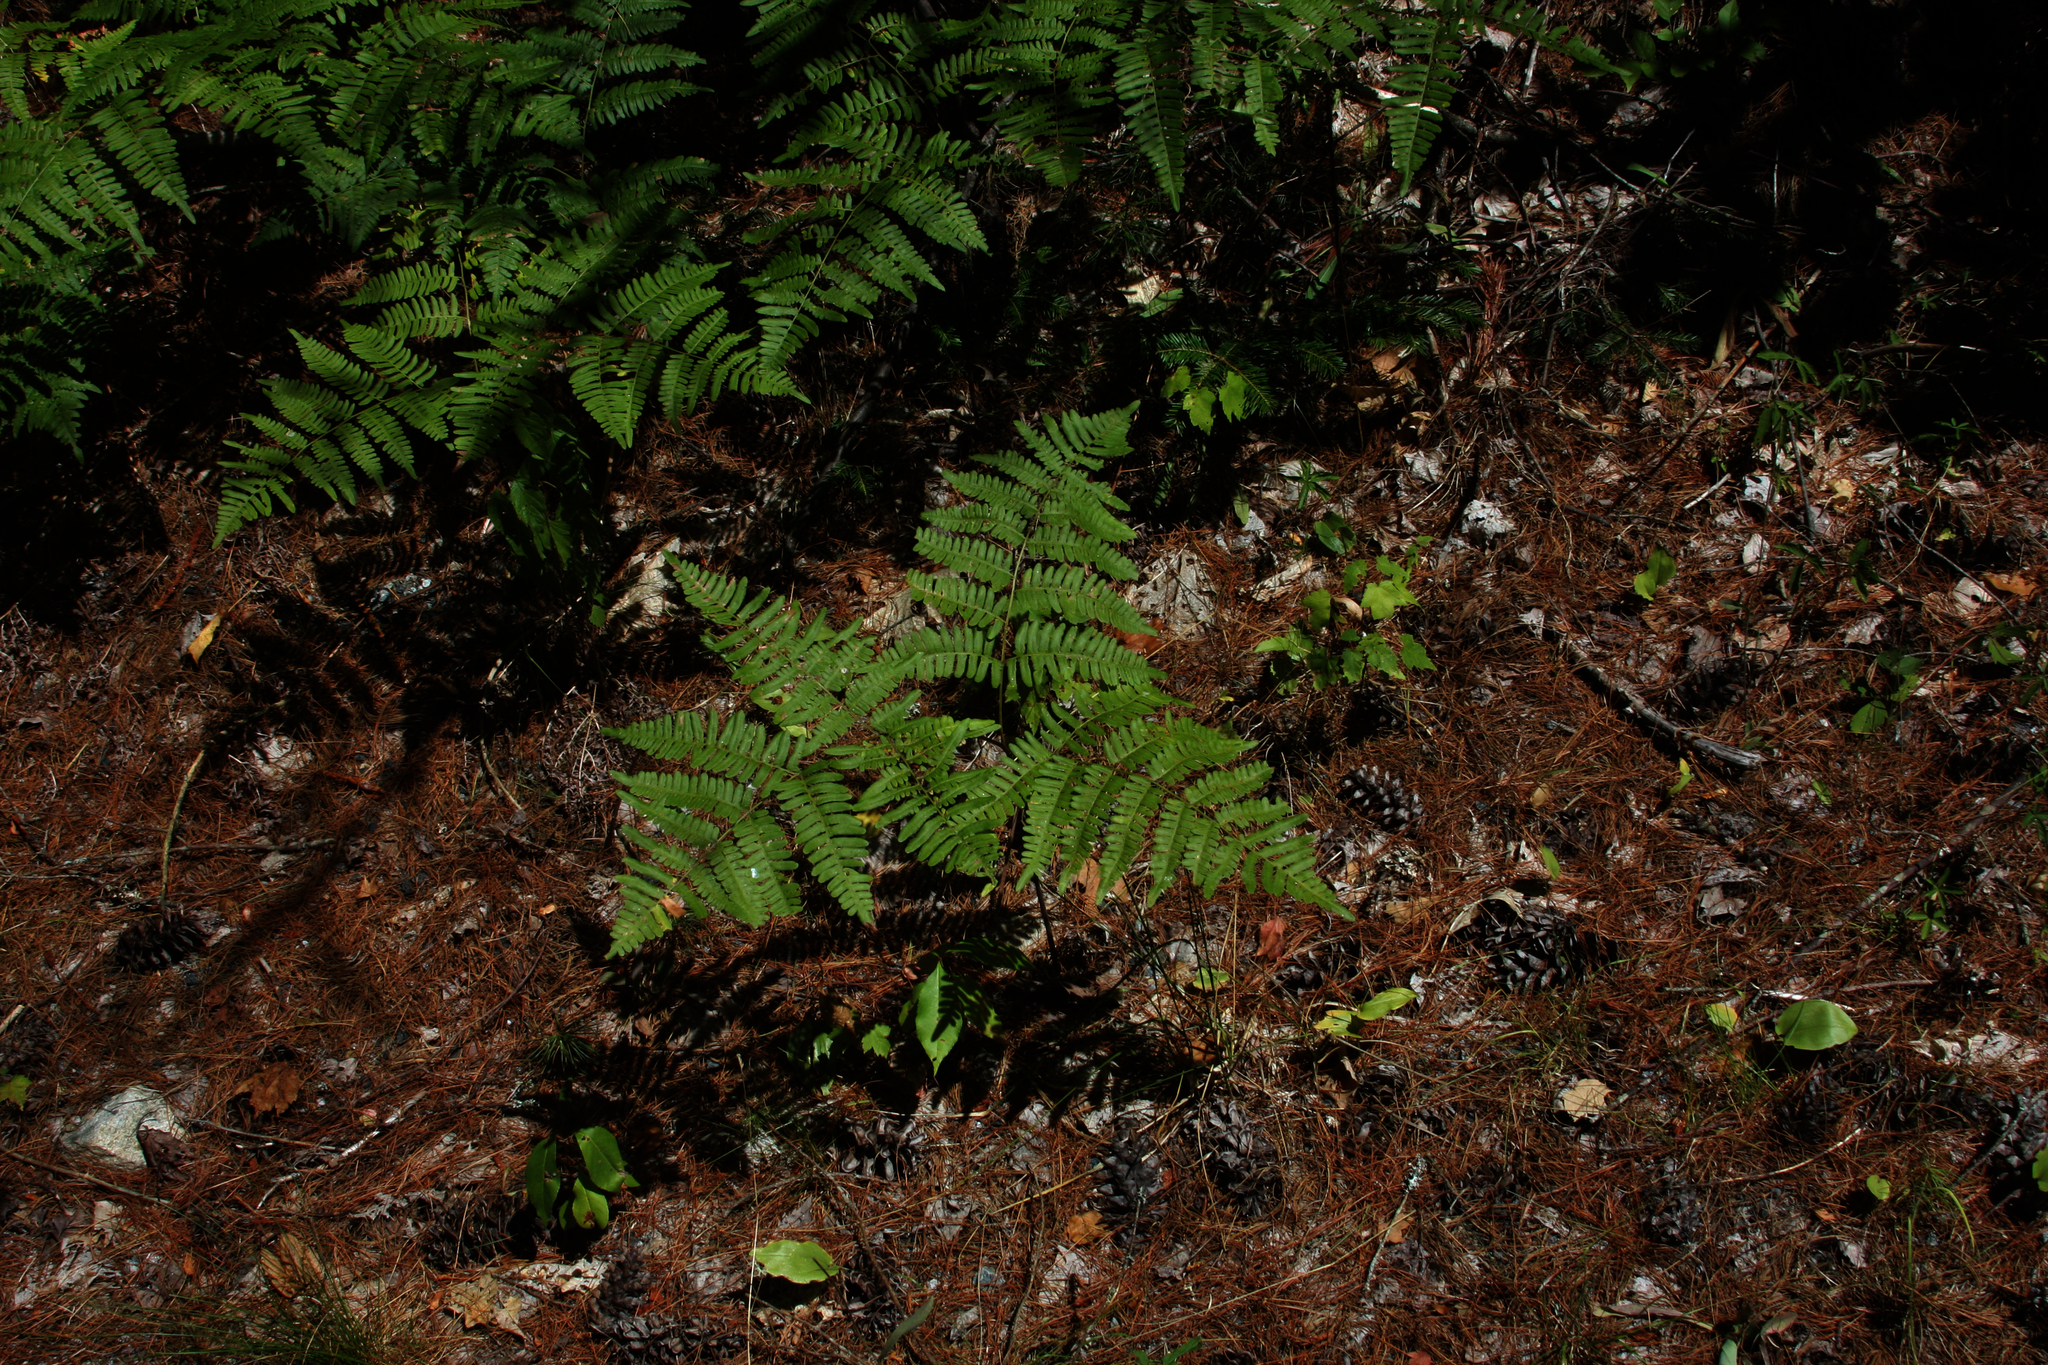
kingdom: Plantae
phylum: Tracheophyta
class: Polypodiopsida
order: Polypodiales
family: Dennstaedtiaceae
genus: Pteridium
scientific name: Pteridium aquilinum
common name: Bracken
